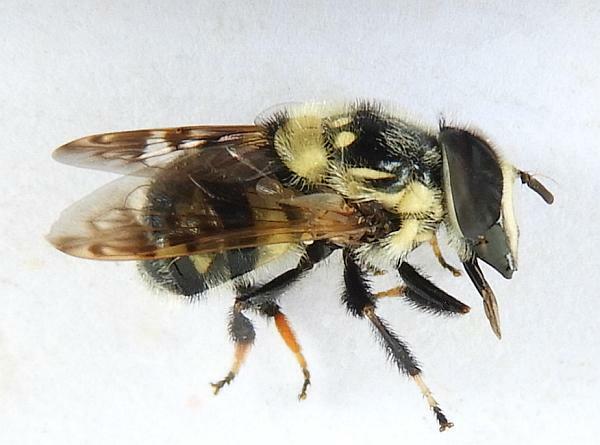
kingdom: Animalia
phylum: Arthropoda
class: Insecta
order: Diptera
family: Syrphidae
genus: Copestylum
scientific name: Copestylum florida
